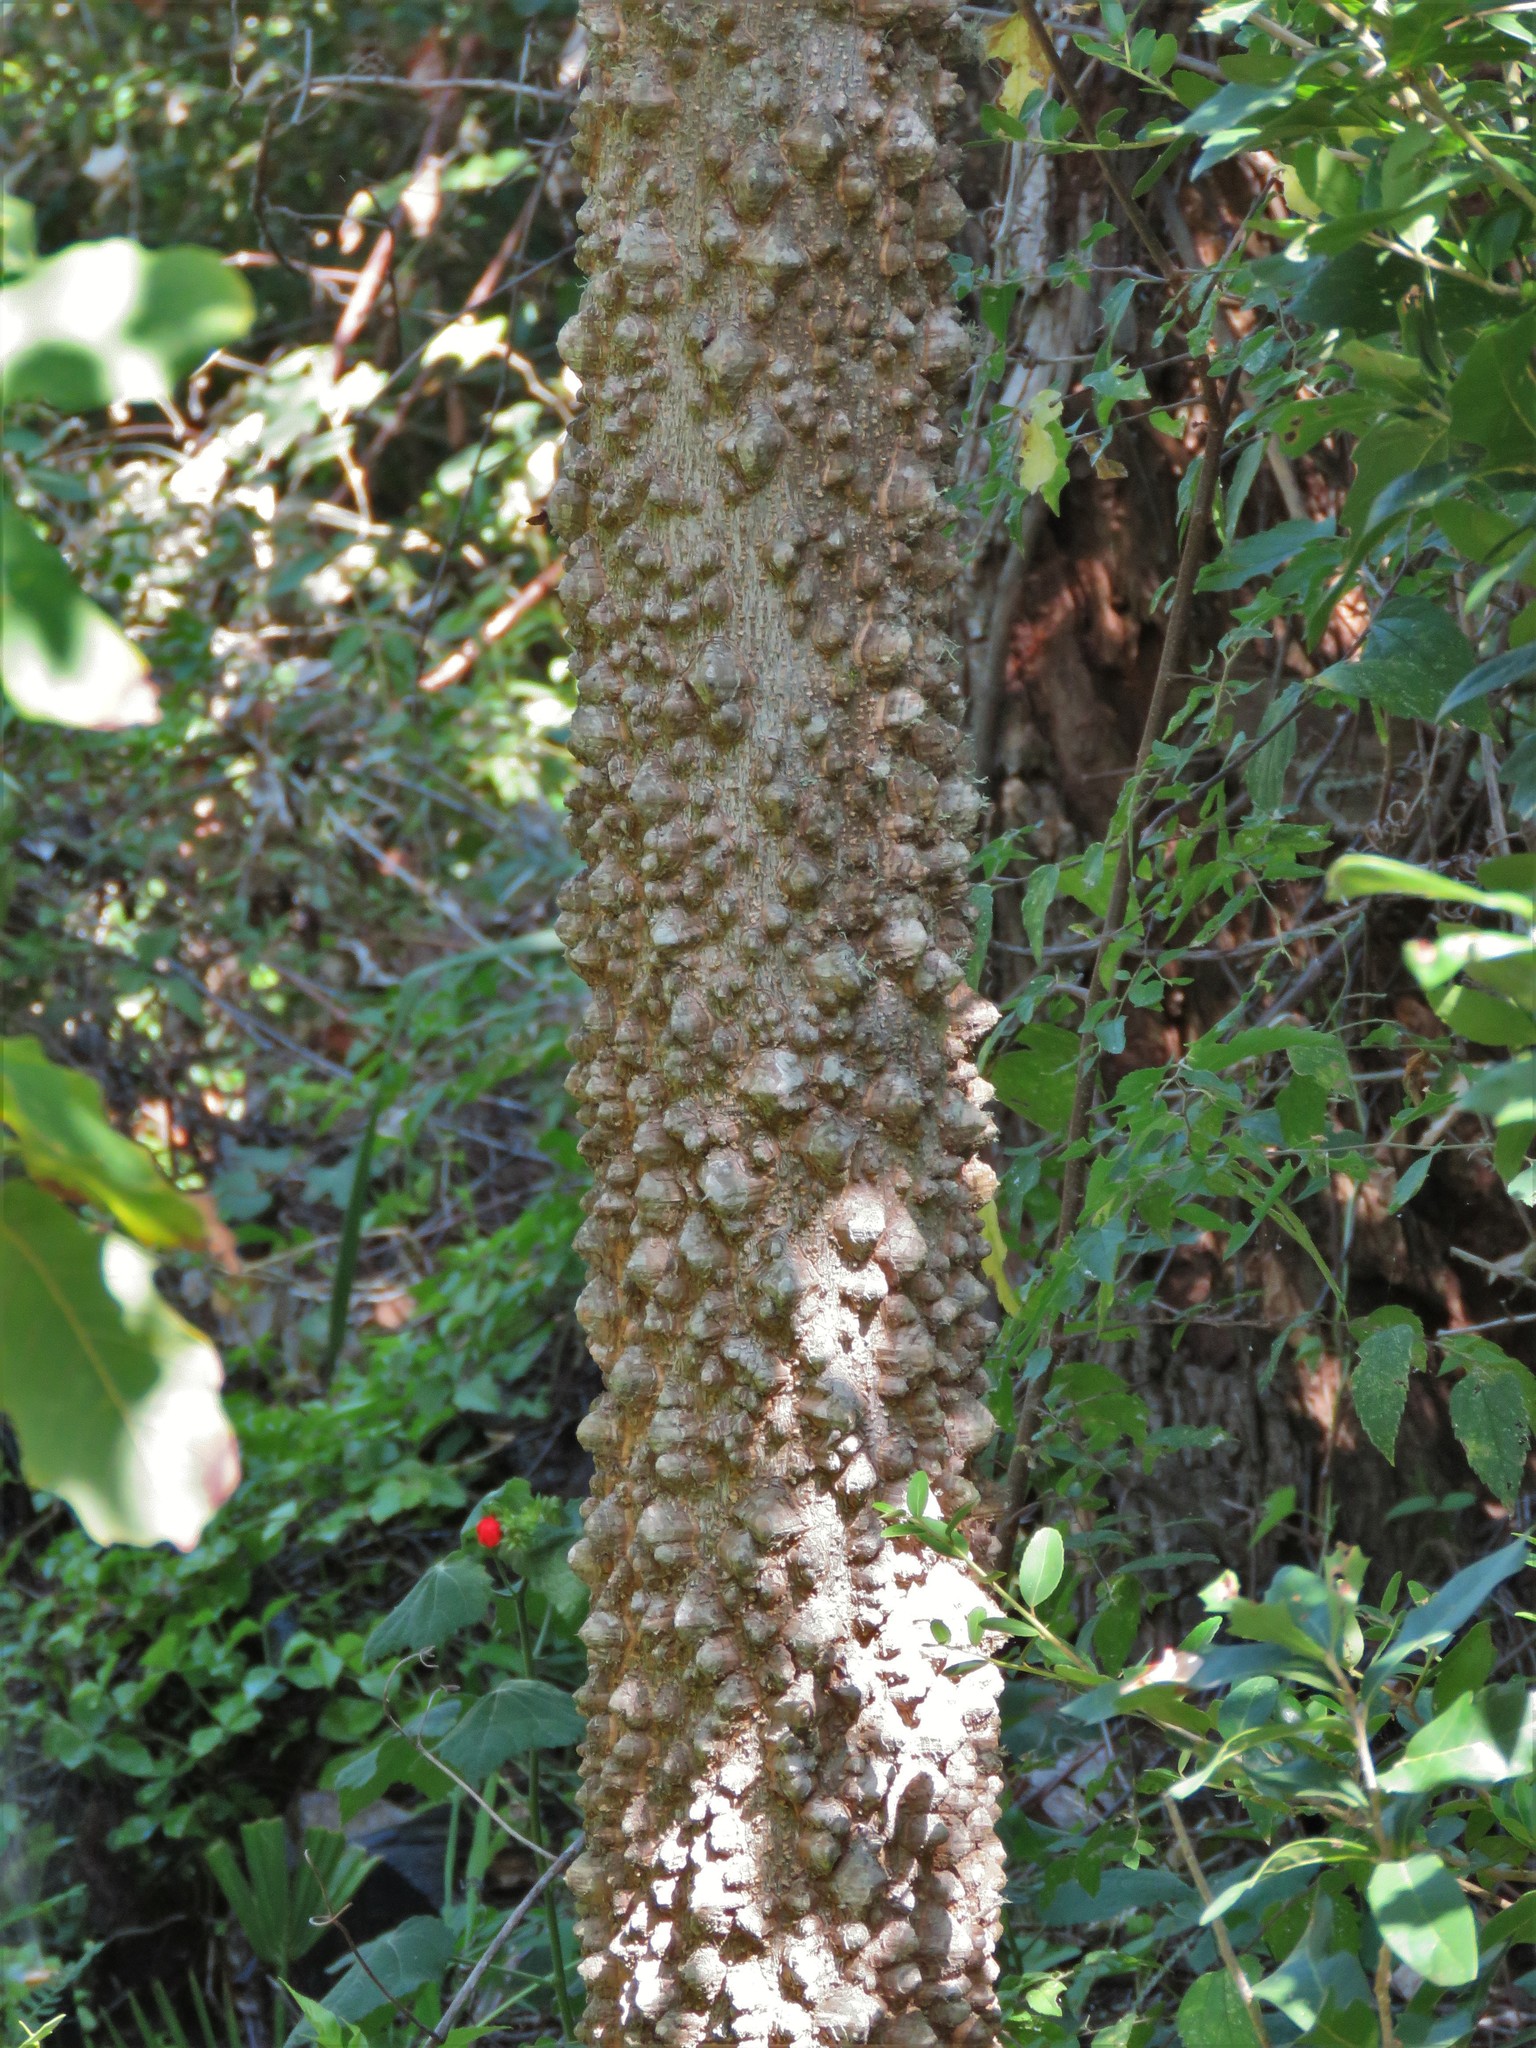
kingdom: Plantae
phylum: Tracheophyta
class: Magnoliopsida
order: Sapindales
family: Rutaceae
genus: Zanthoxylum
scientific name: Zanthoxylum clava-herculis
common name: Hercules'-club
